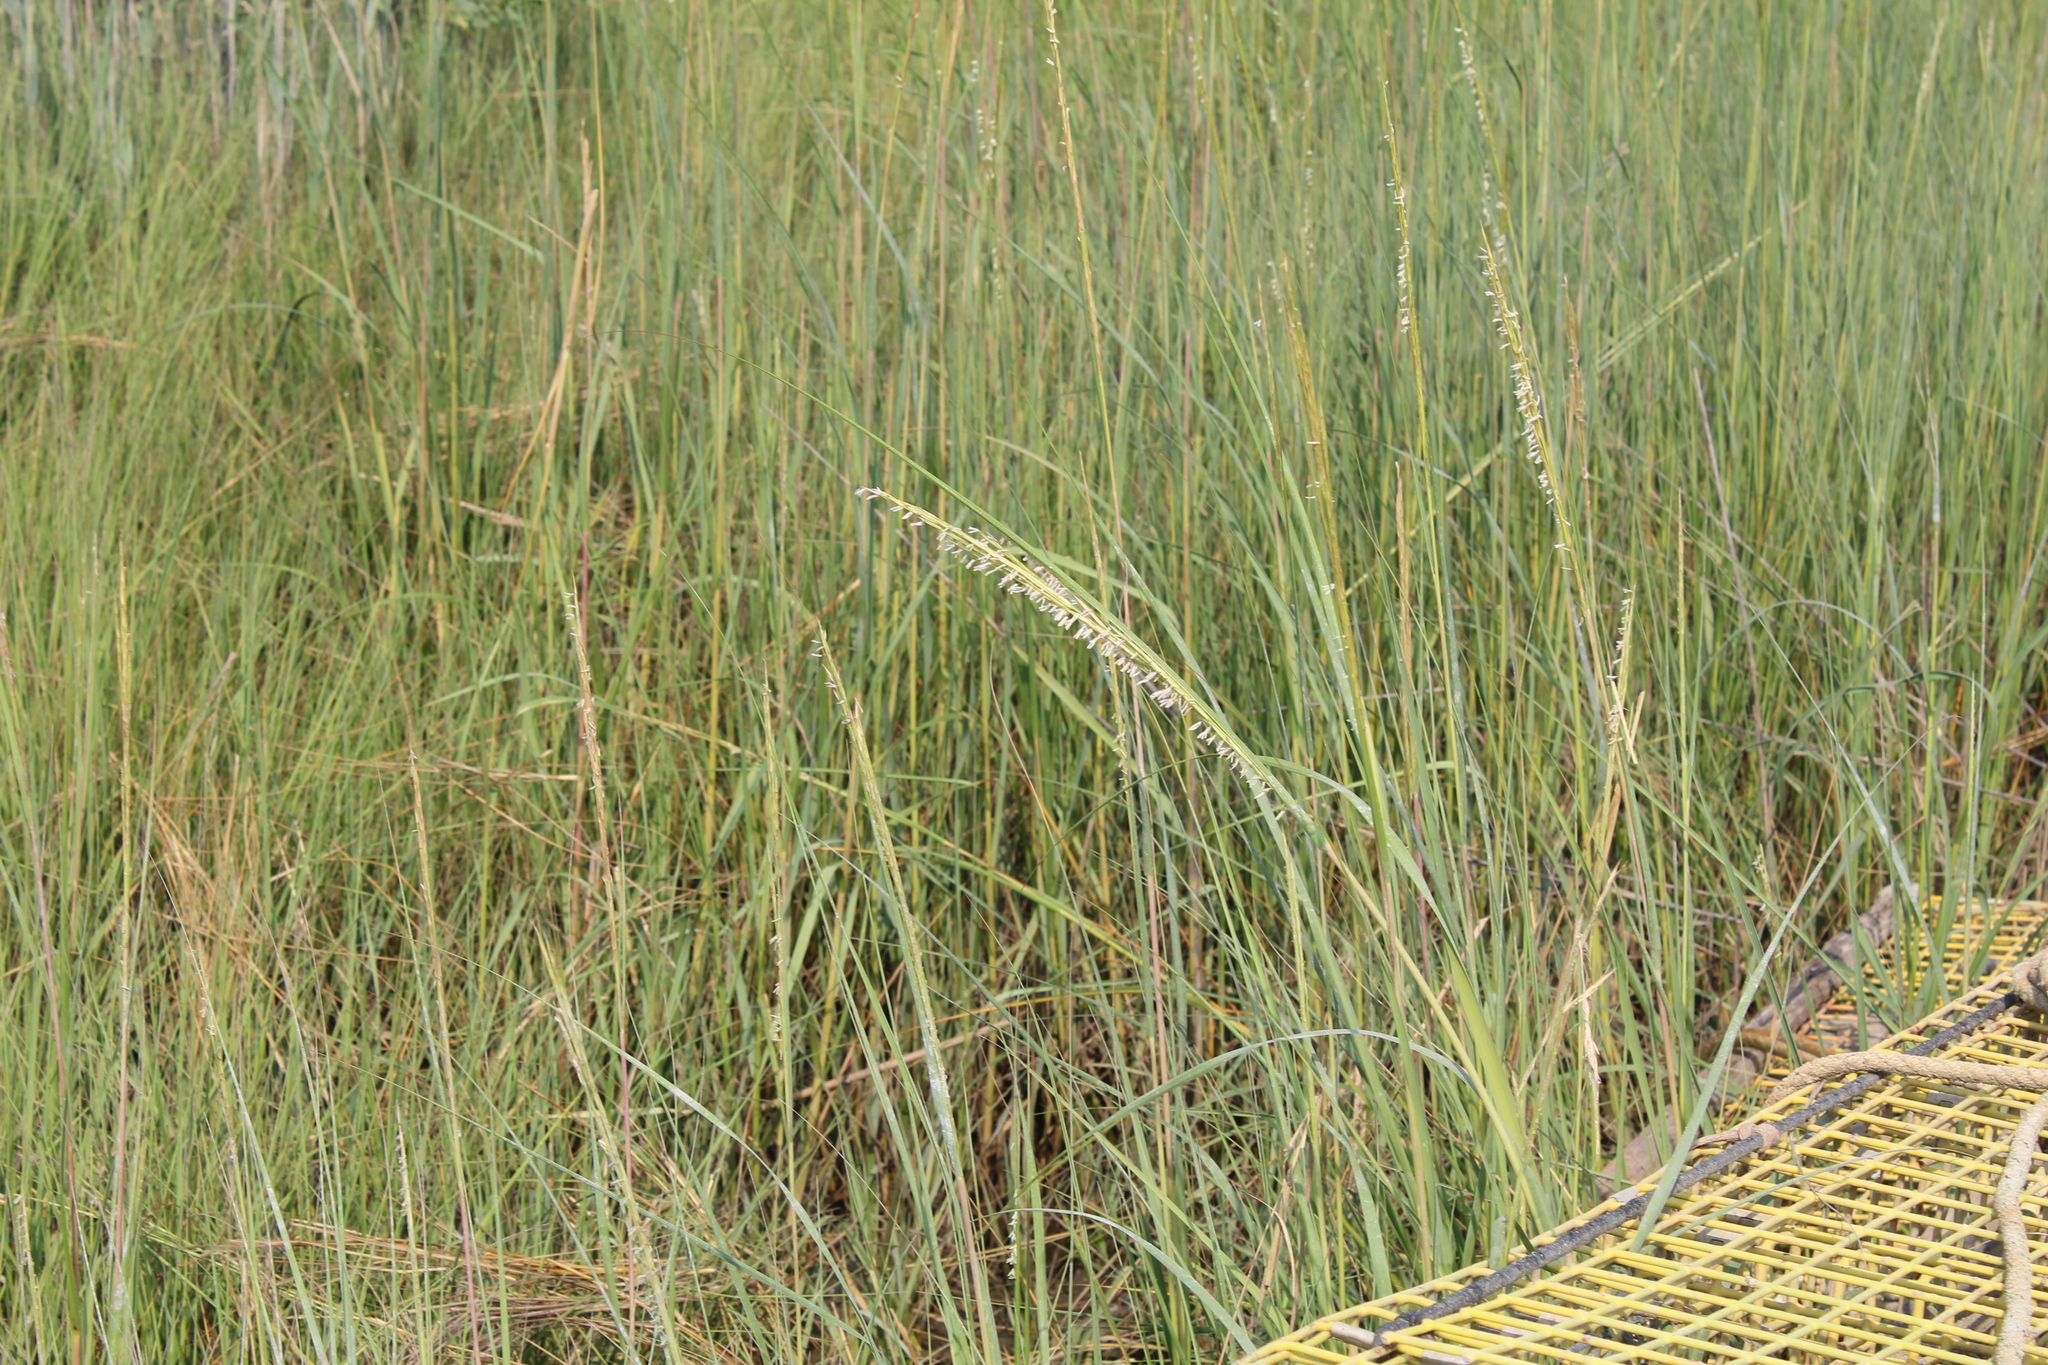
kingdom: Plantae
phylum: Tracheophyta
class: Liliopsida
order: Poales
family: Poaceae
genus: Sporobolus
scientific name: Sporobolus alterniflorus
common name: Atlantic cordgrass
